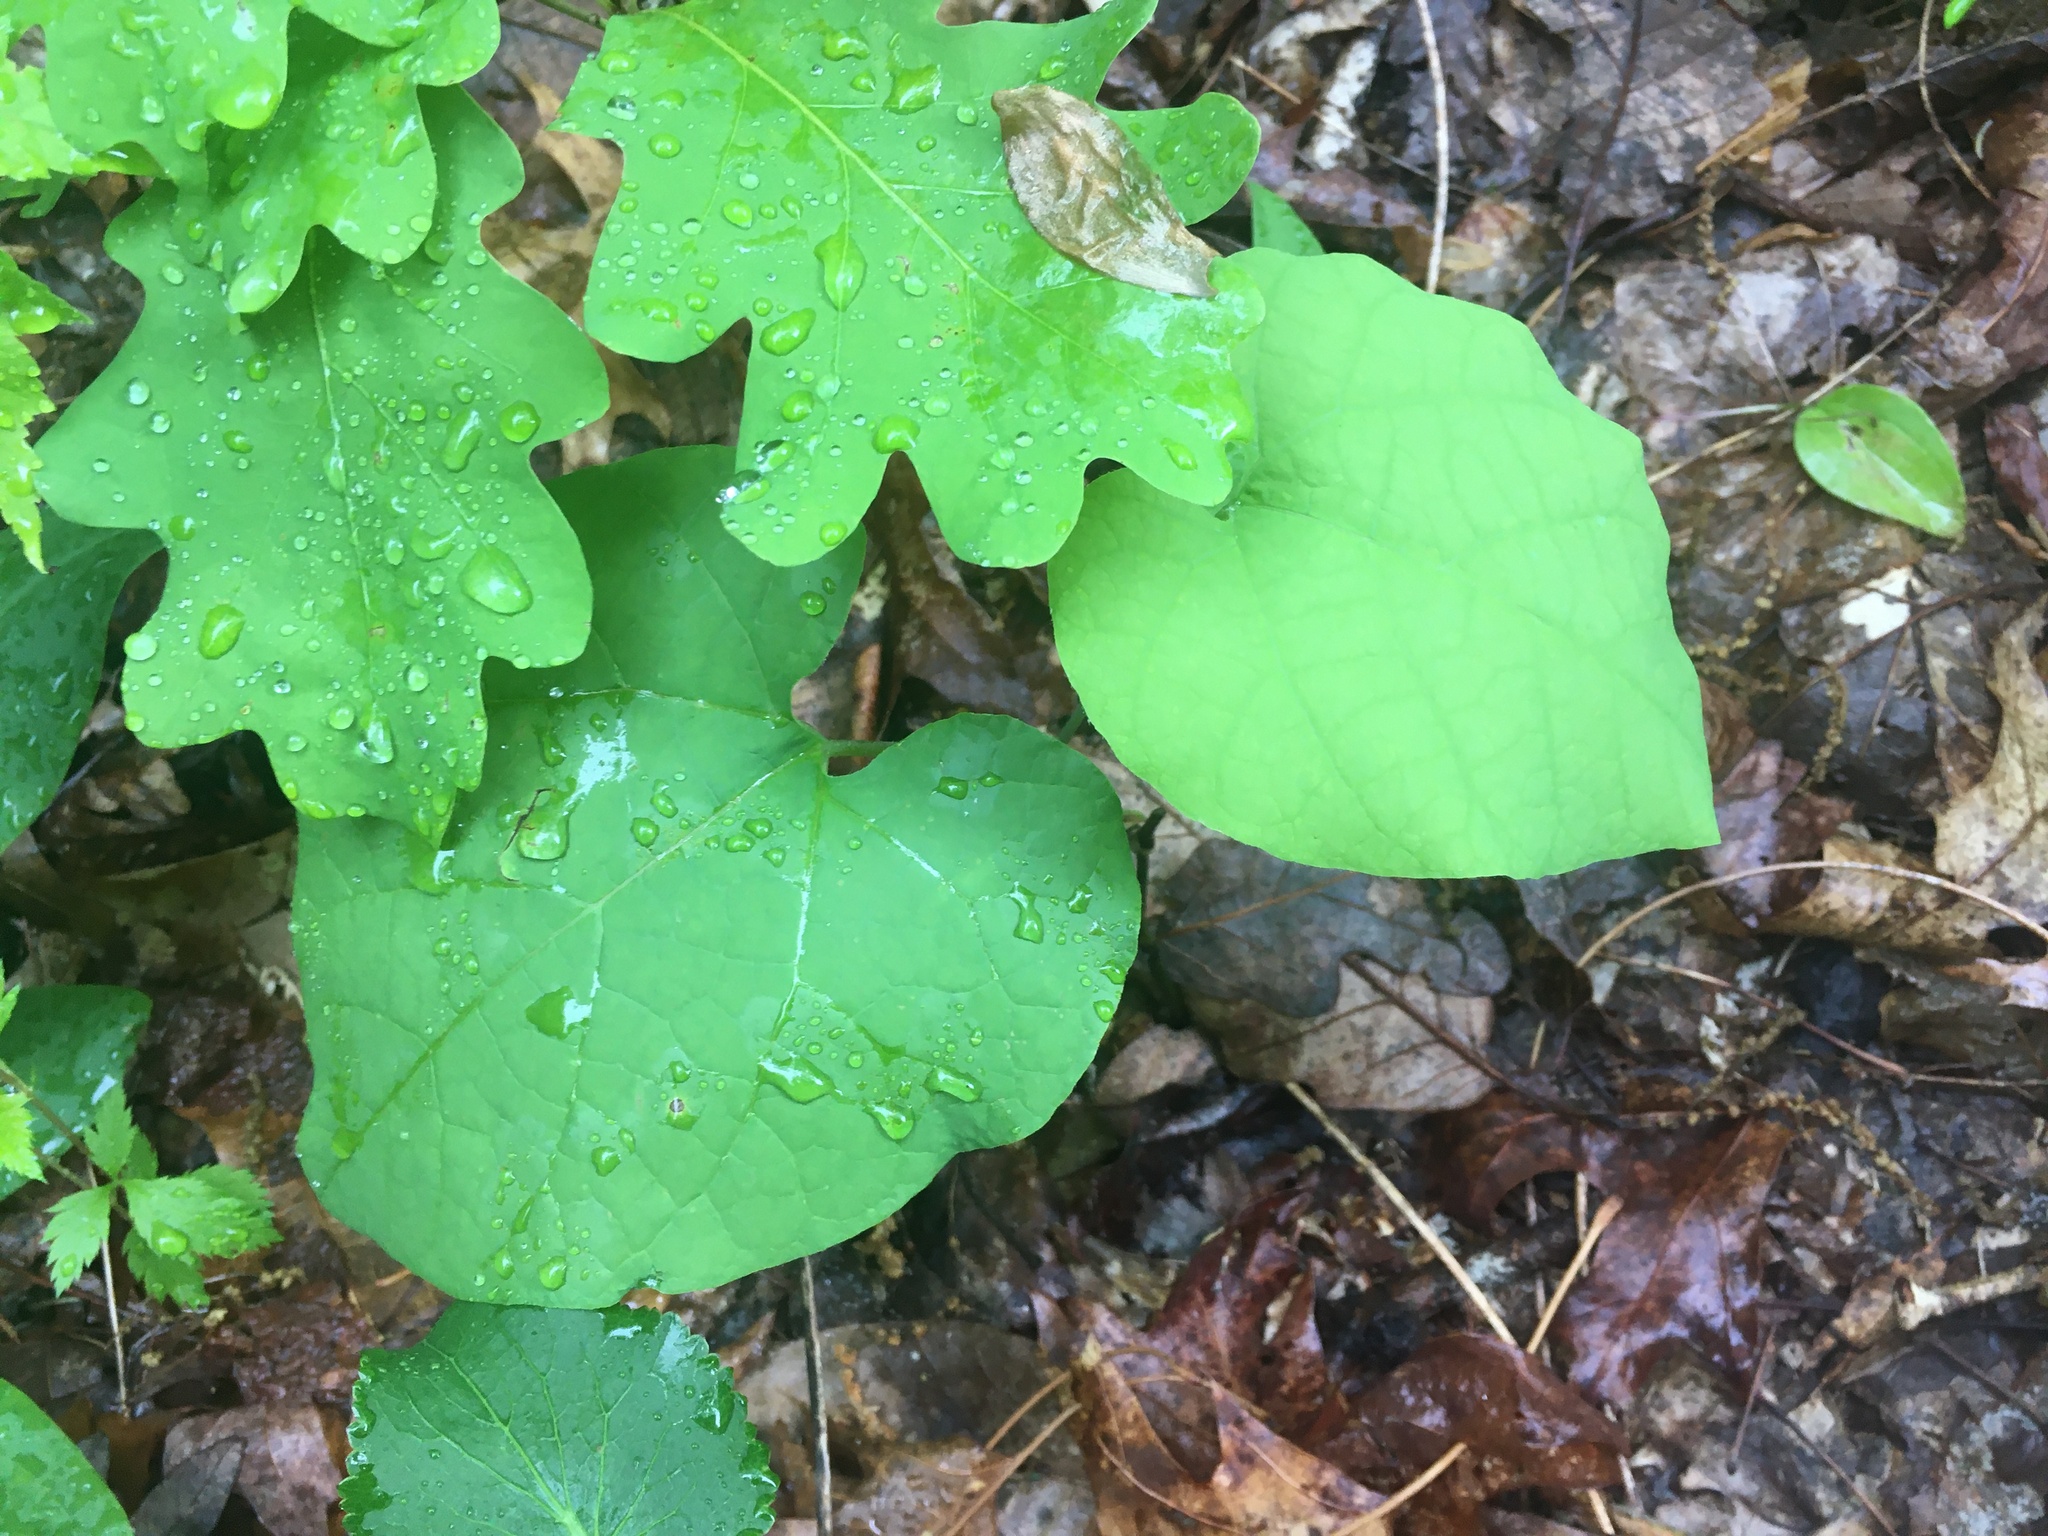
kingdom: Plantae
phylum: Tracheophyta
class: Magnoliopsida
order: Piperales
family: Aristolochiaceae
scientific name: Aristolochiaceae
